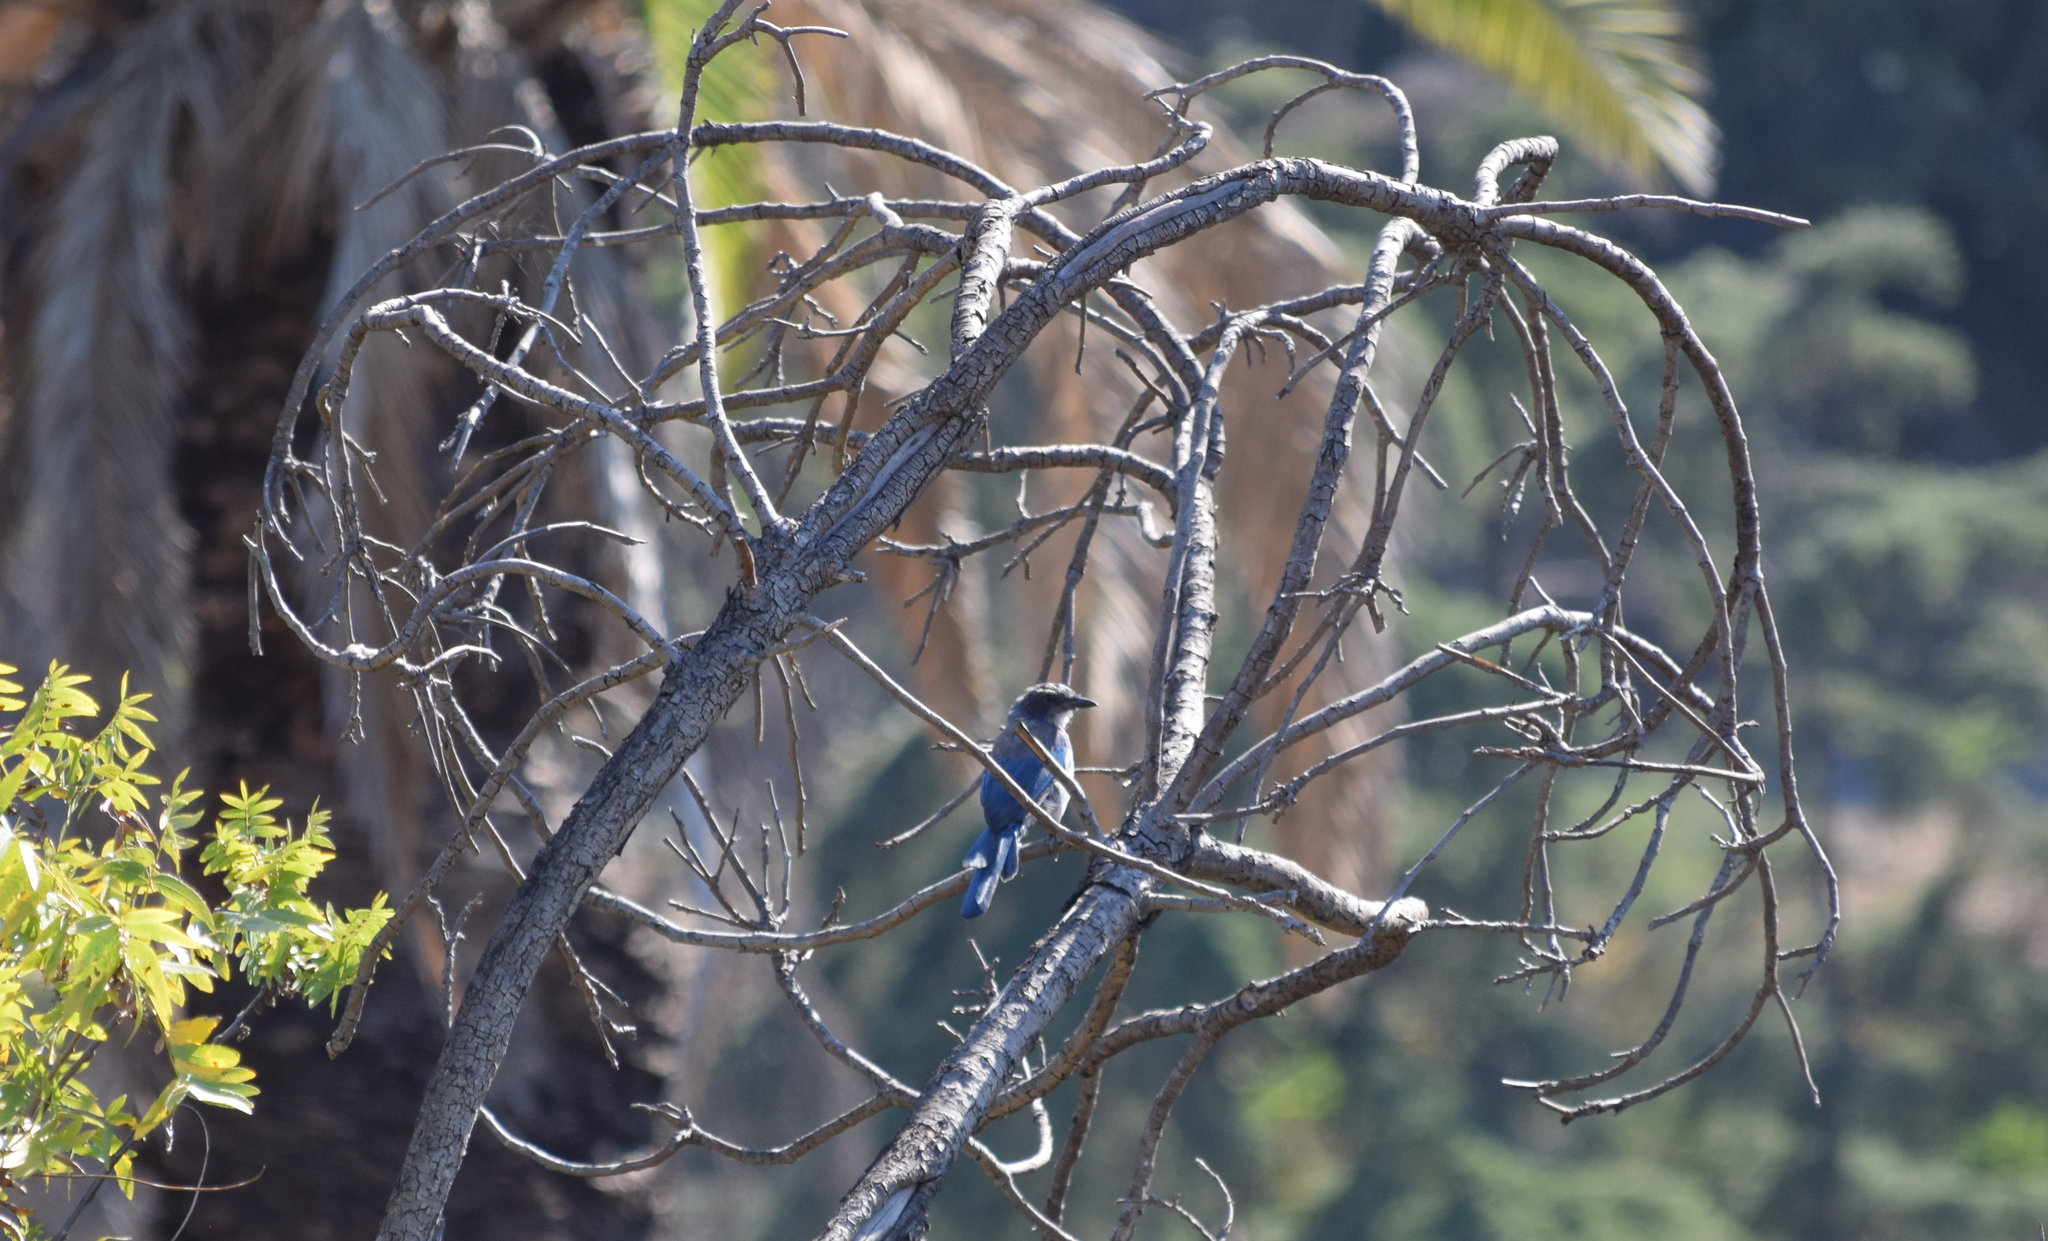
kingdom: Animalia
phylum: Chordata
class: Aves
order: Passeriformes
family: Corvidae
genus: Aphelocoma
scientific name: Aphelocoma californica
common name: California scrub-jay
